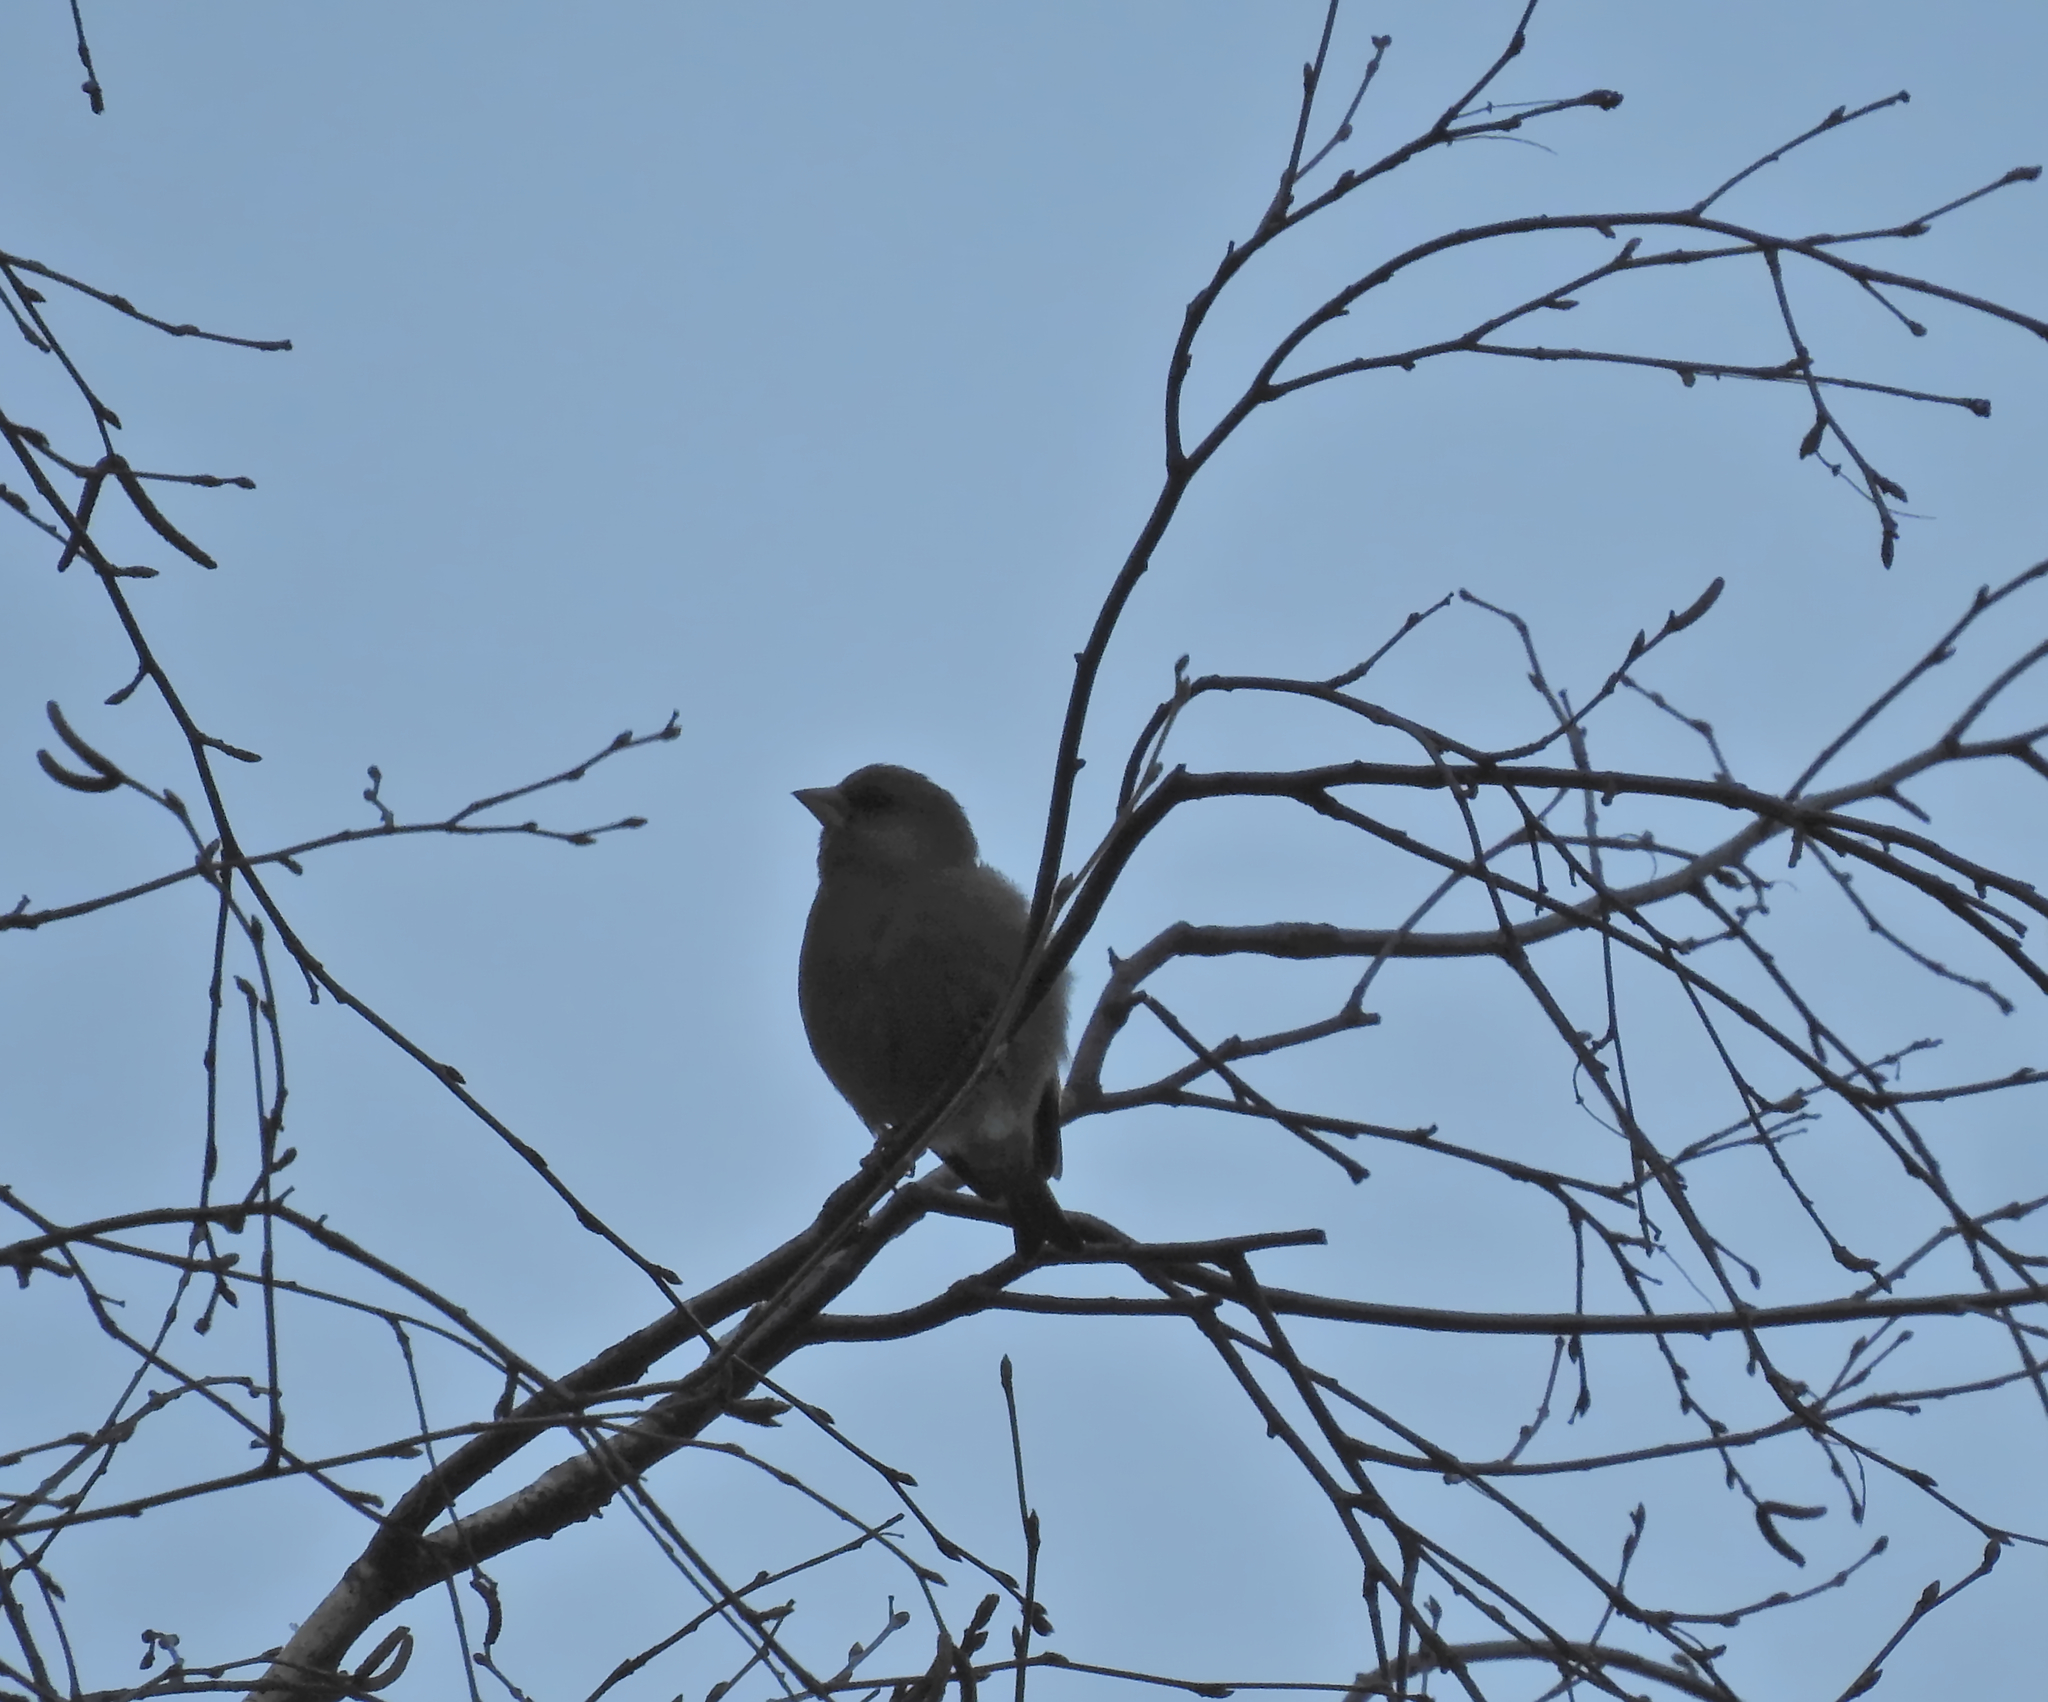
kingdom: Plantae
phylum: Tracheophyta
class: Liliopsida
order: Poales
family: Poaceae
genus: Chloris
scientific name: Chloris chloris
